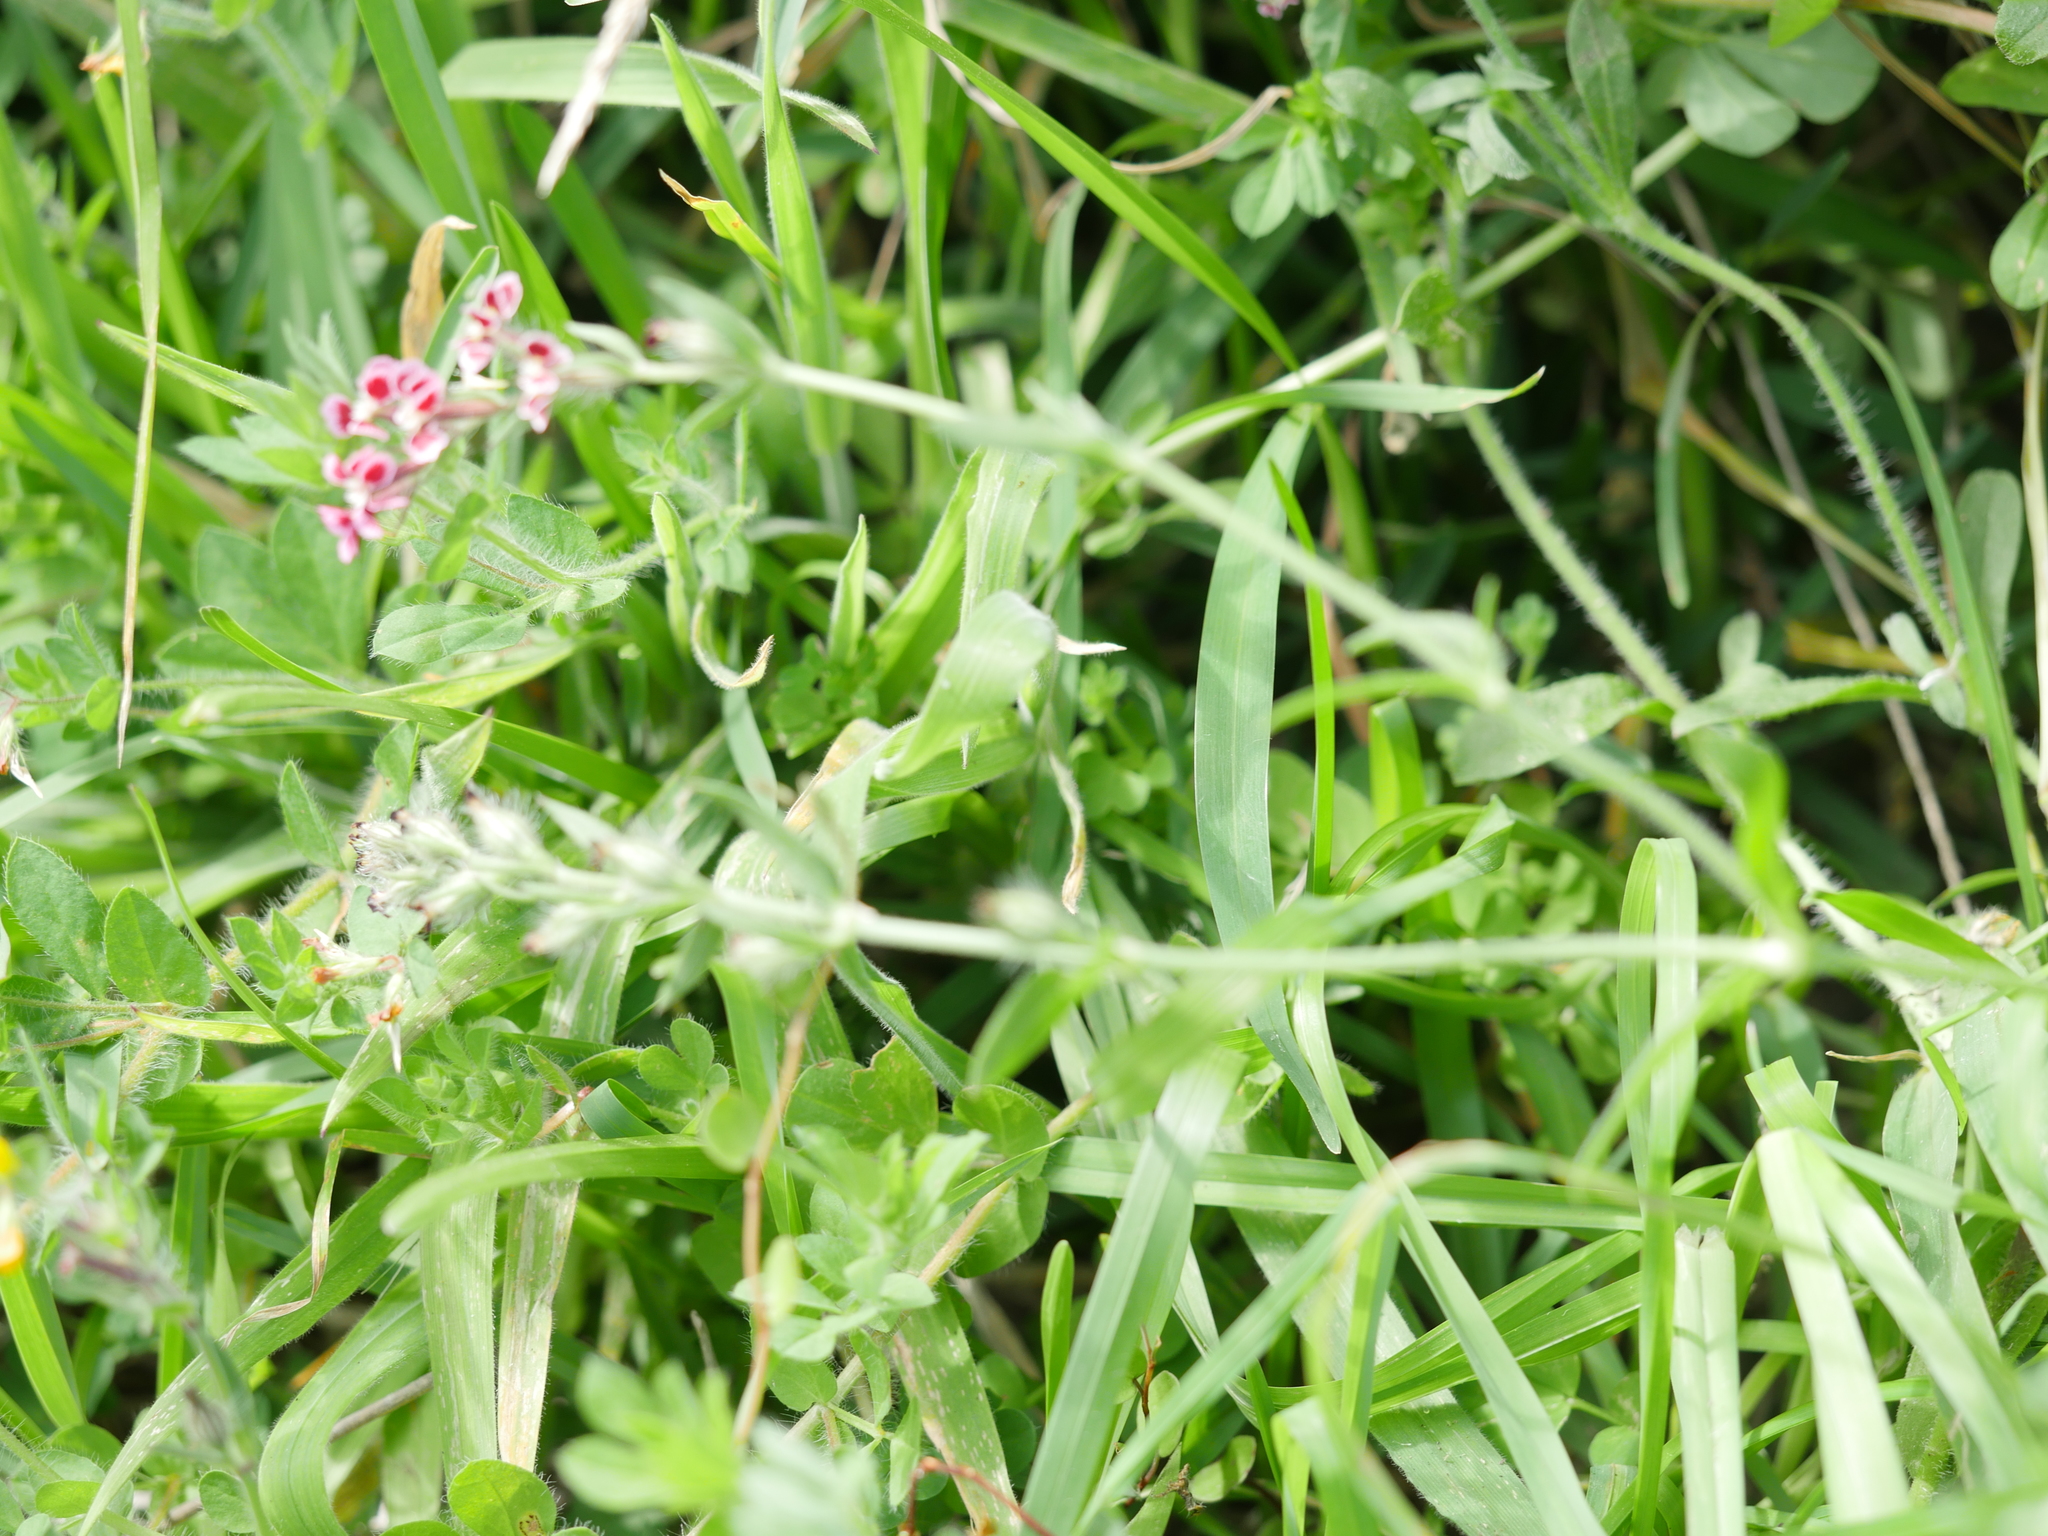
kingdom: Plantae
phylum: Tracheophyta
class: Magnoliopsida
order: Caryophyllales
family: Caryophyllaceae
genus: Silene
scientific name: Silene gallica
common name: Small-flowered catchfly
